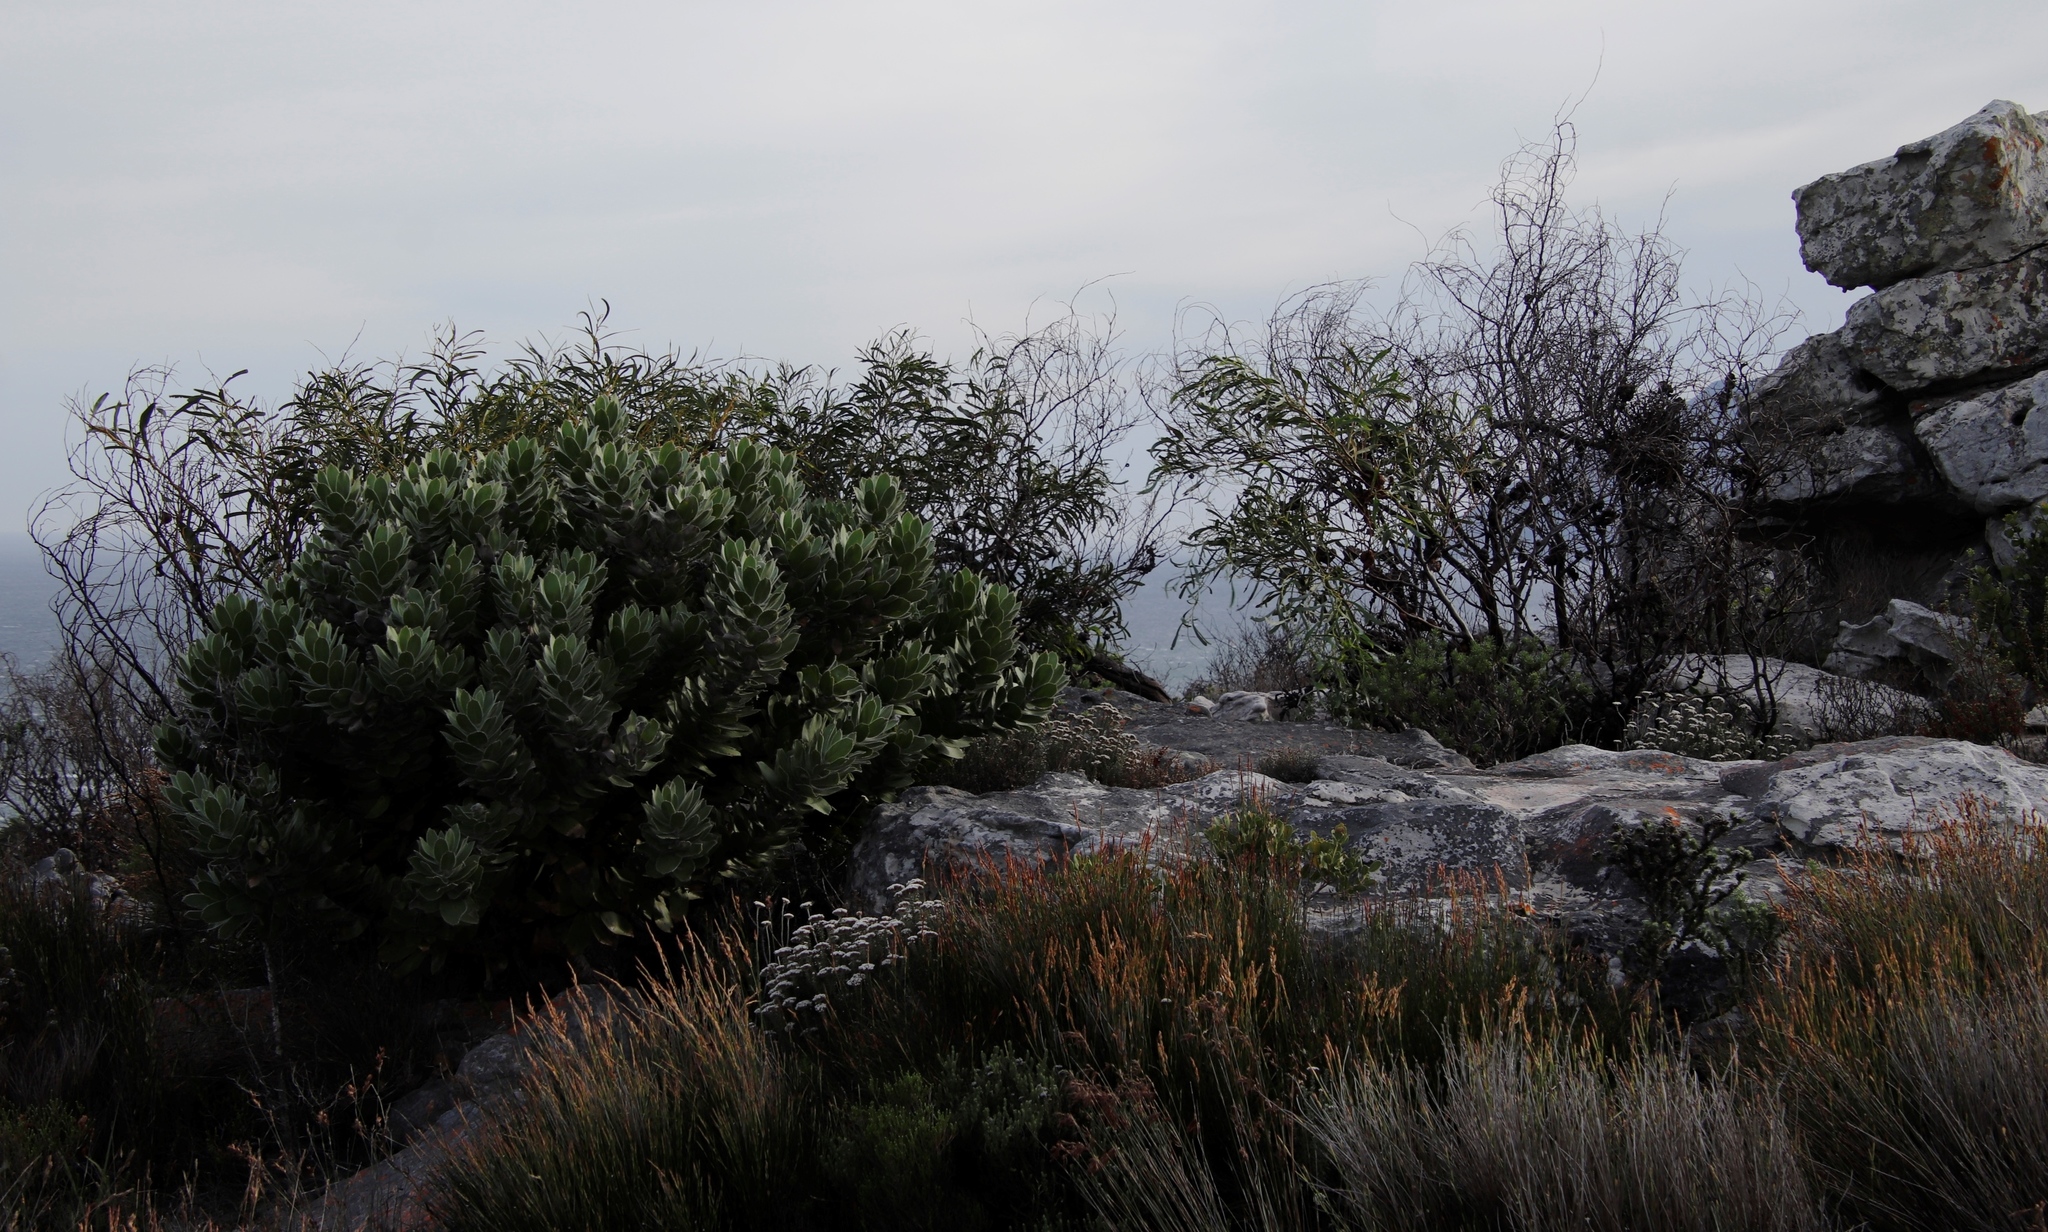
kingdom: Plantae
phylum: Tracheophyta
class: Magnoliopsida
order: Fabales
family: Fabaceae
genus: Acacia
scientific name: Acacia saligna
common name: Orange wattle
